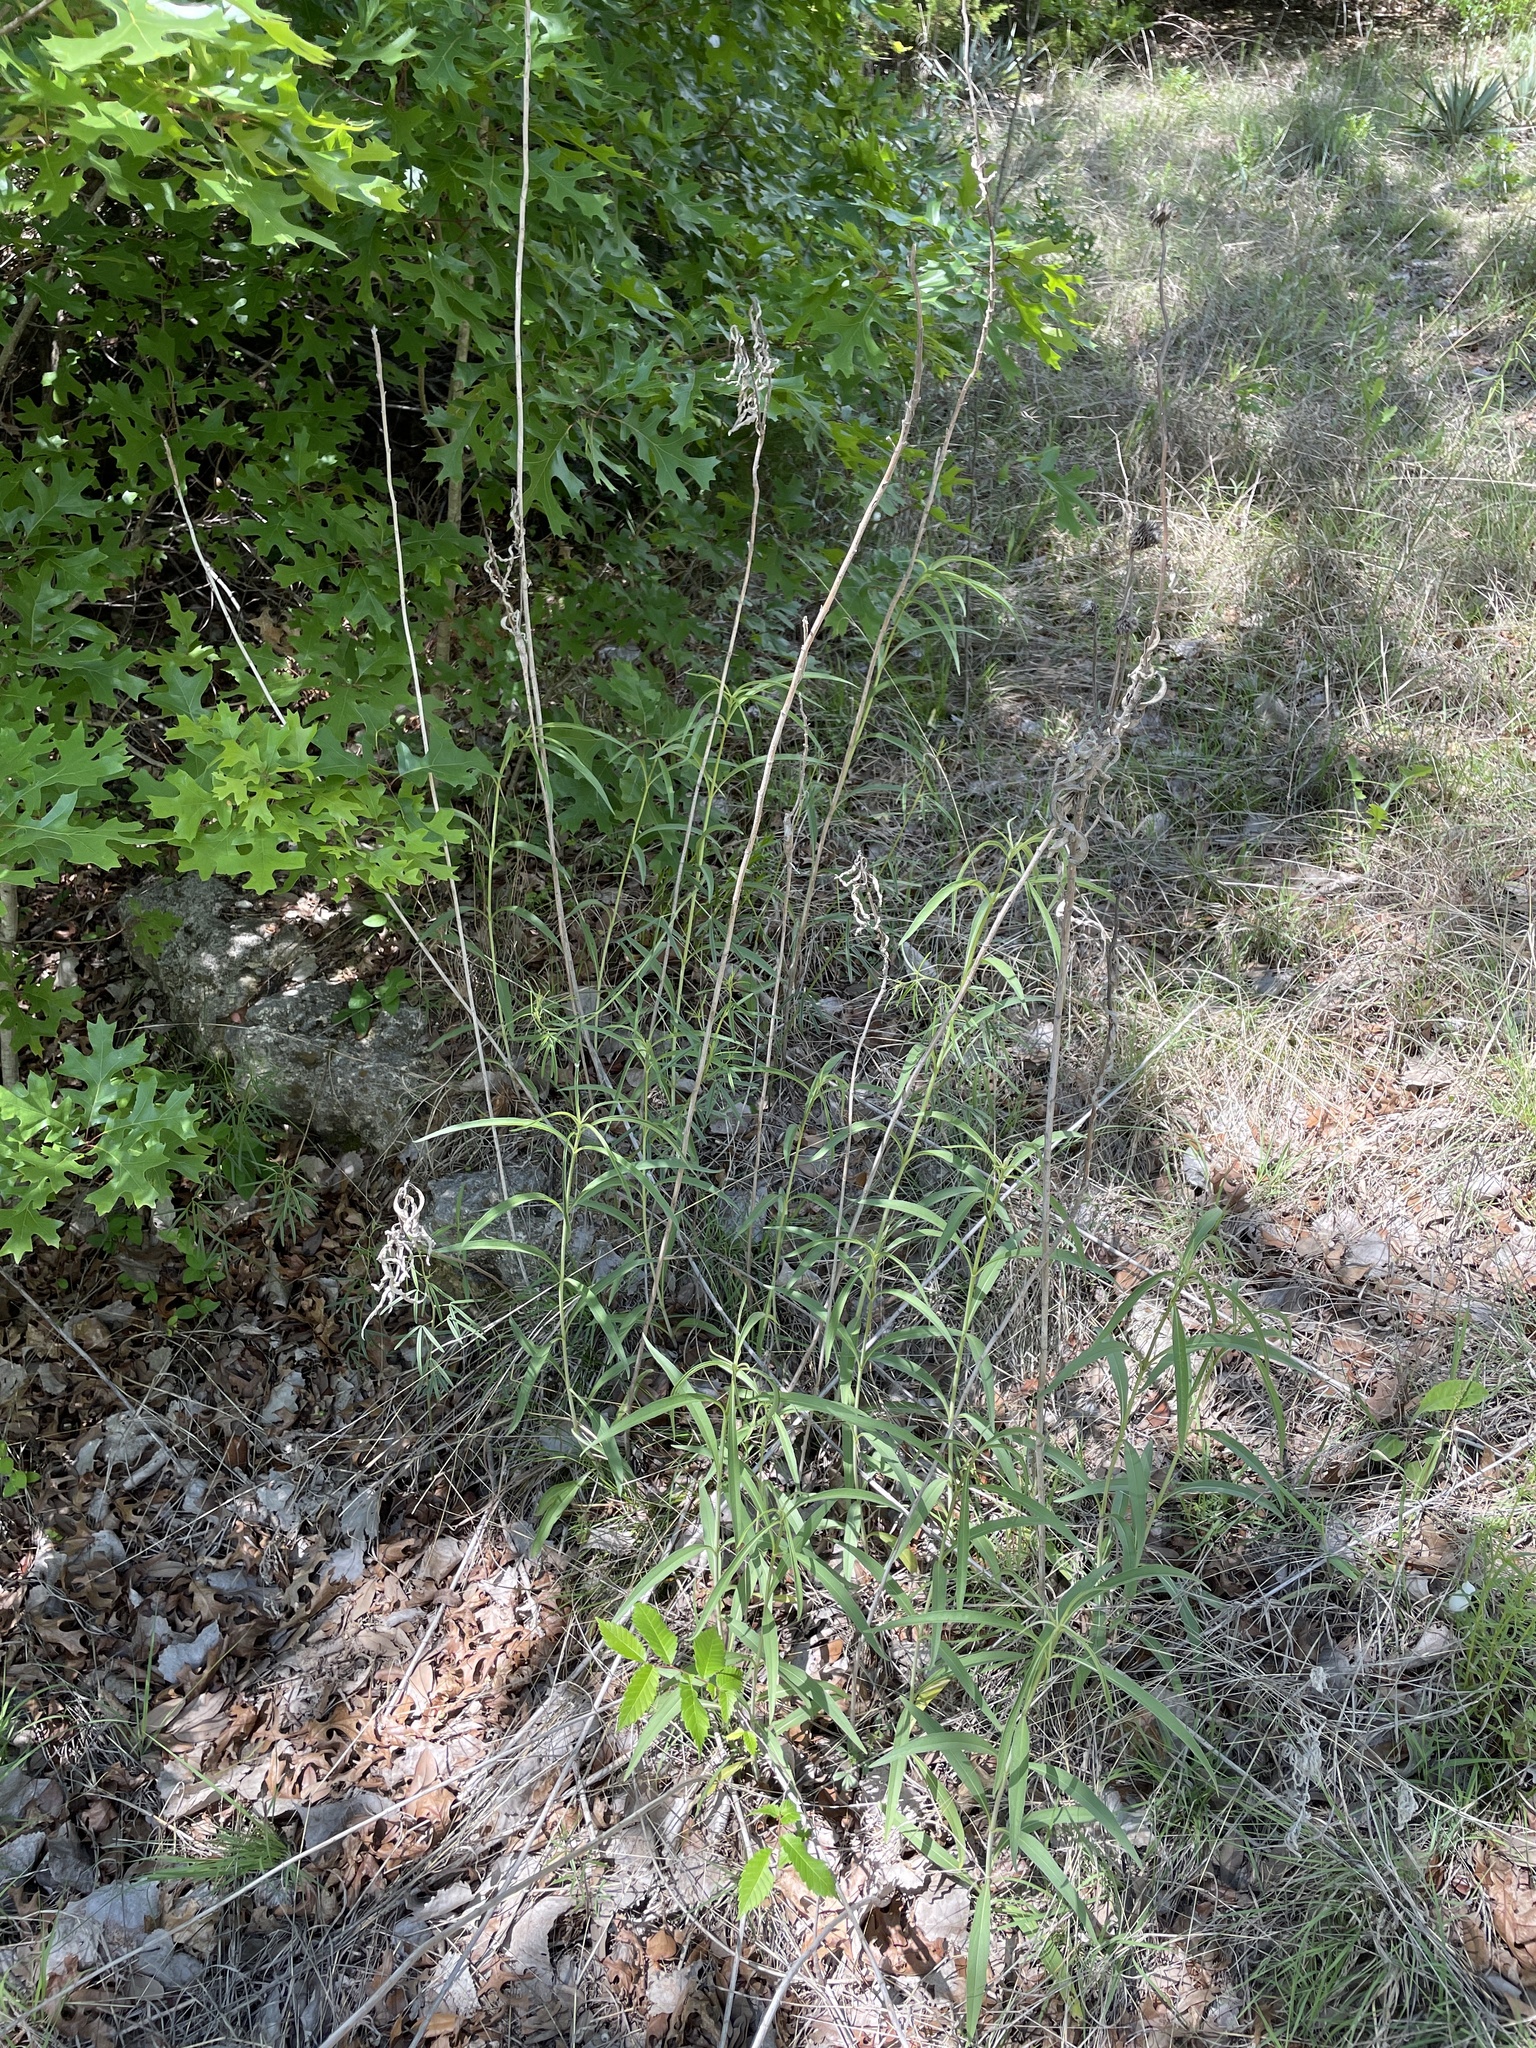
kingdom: Plantae
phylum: Tracheophyta
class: Magnoliopsida
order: Asterales
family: Asteraceae
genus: Helianthus
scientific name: Helianthus maximiliani
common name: Maximilian's sunflower
